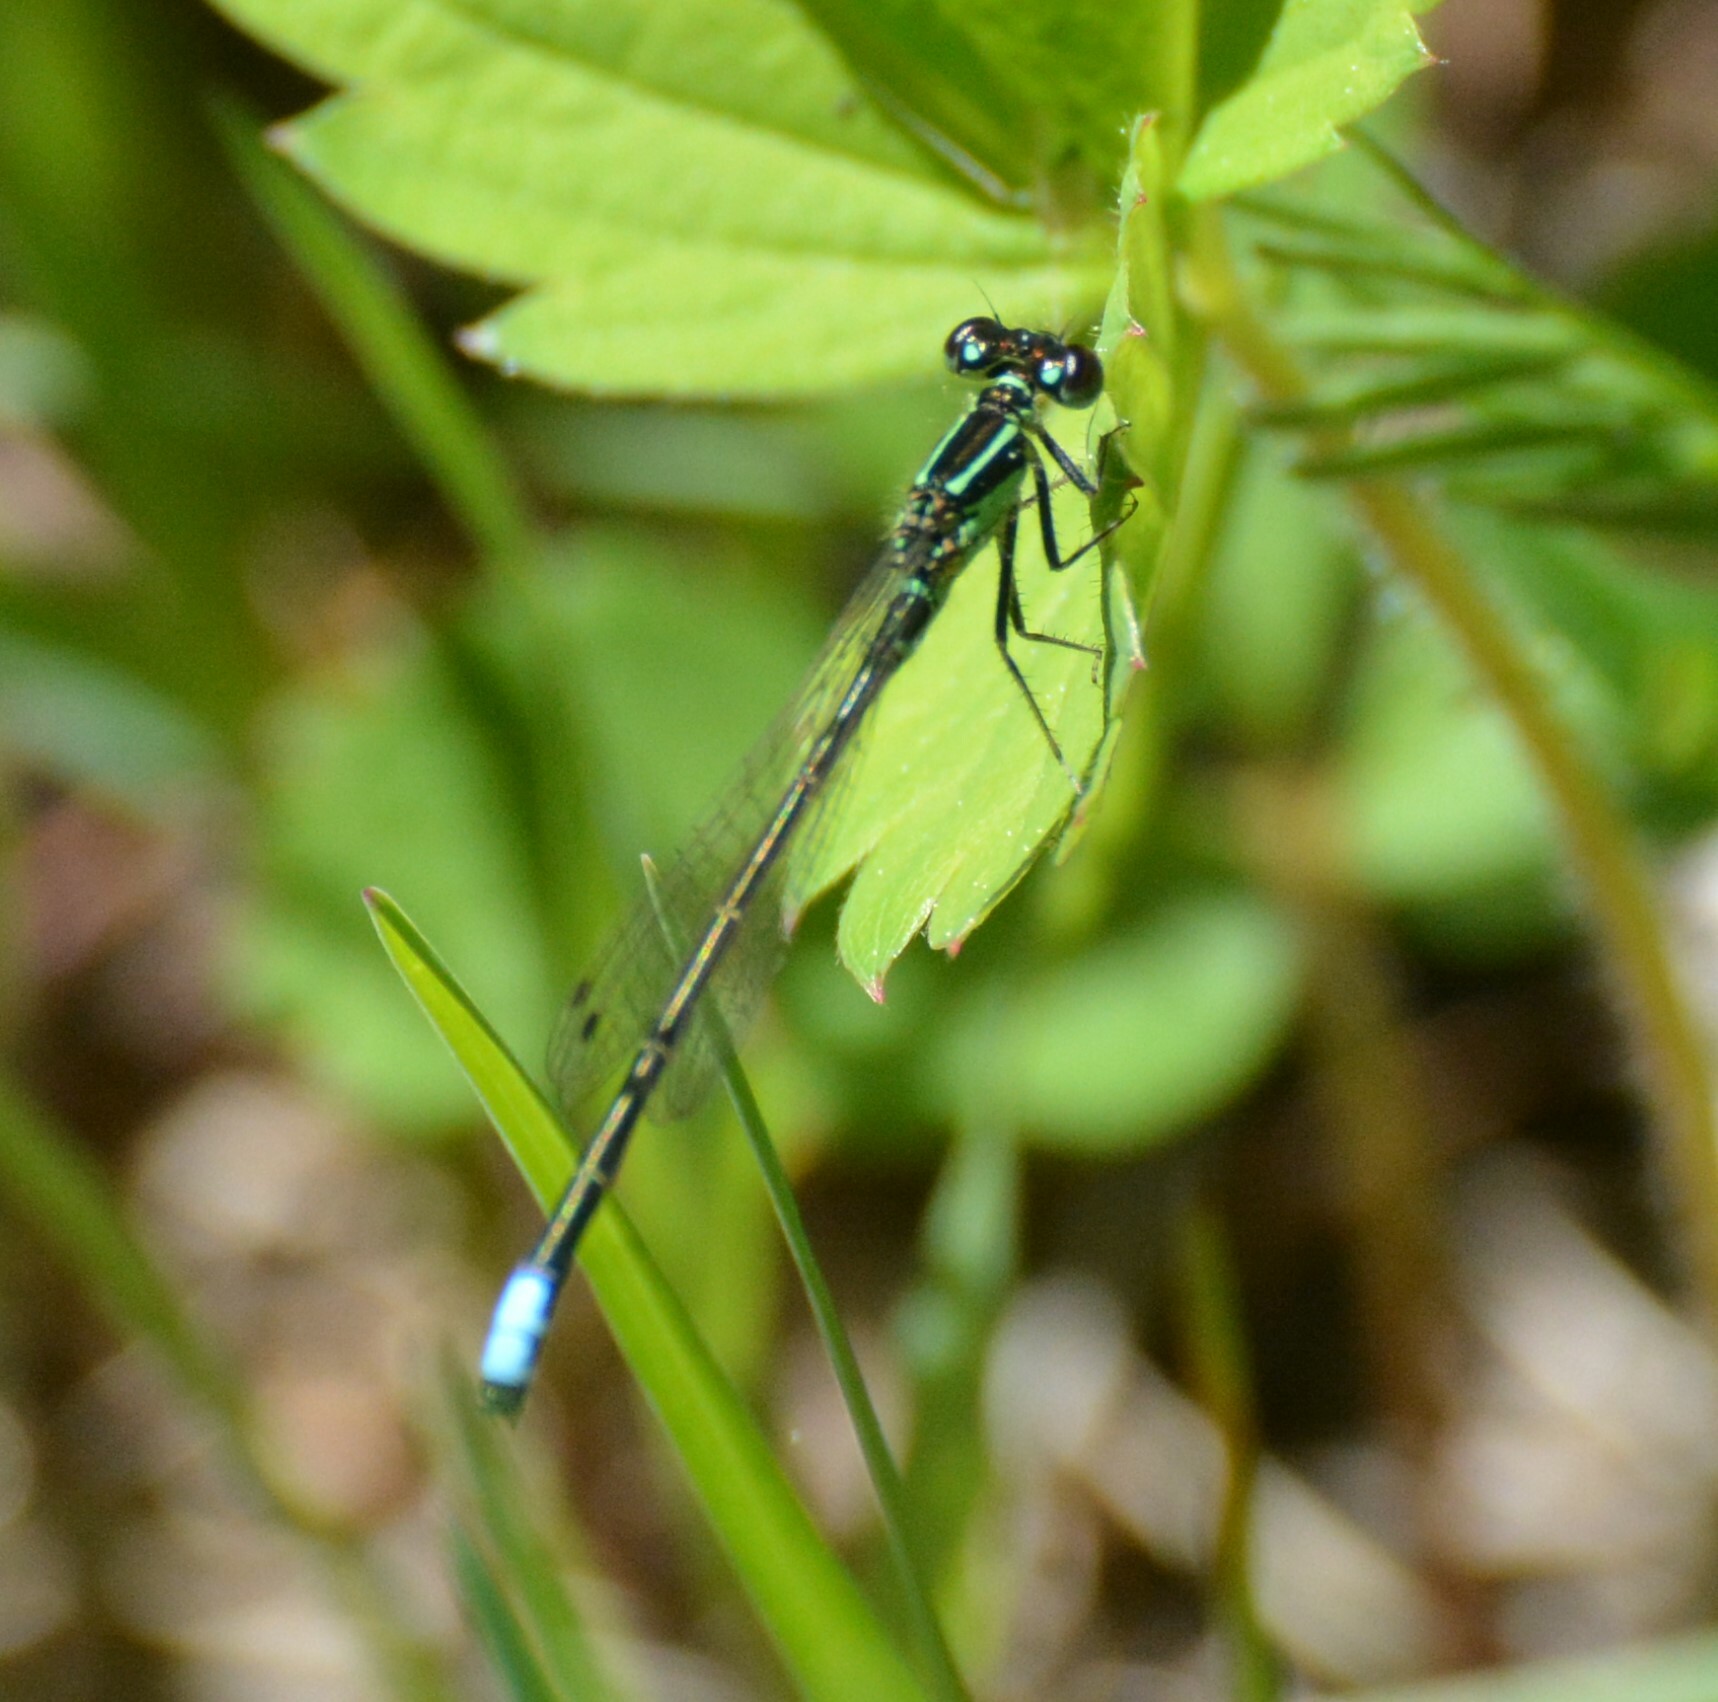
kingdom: Animalia
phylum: Arthropoda
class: Insecta
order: Odonata
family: Coenagrionidae
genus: Ischnura
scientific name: Ischnura verticalis
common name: Eastern forktail
